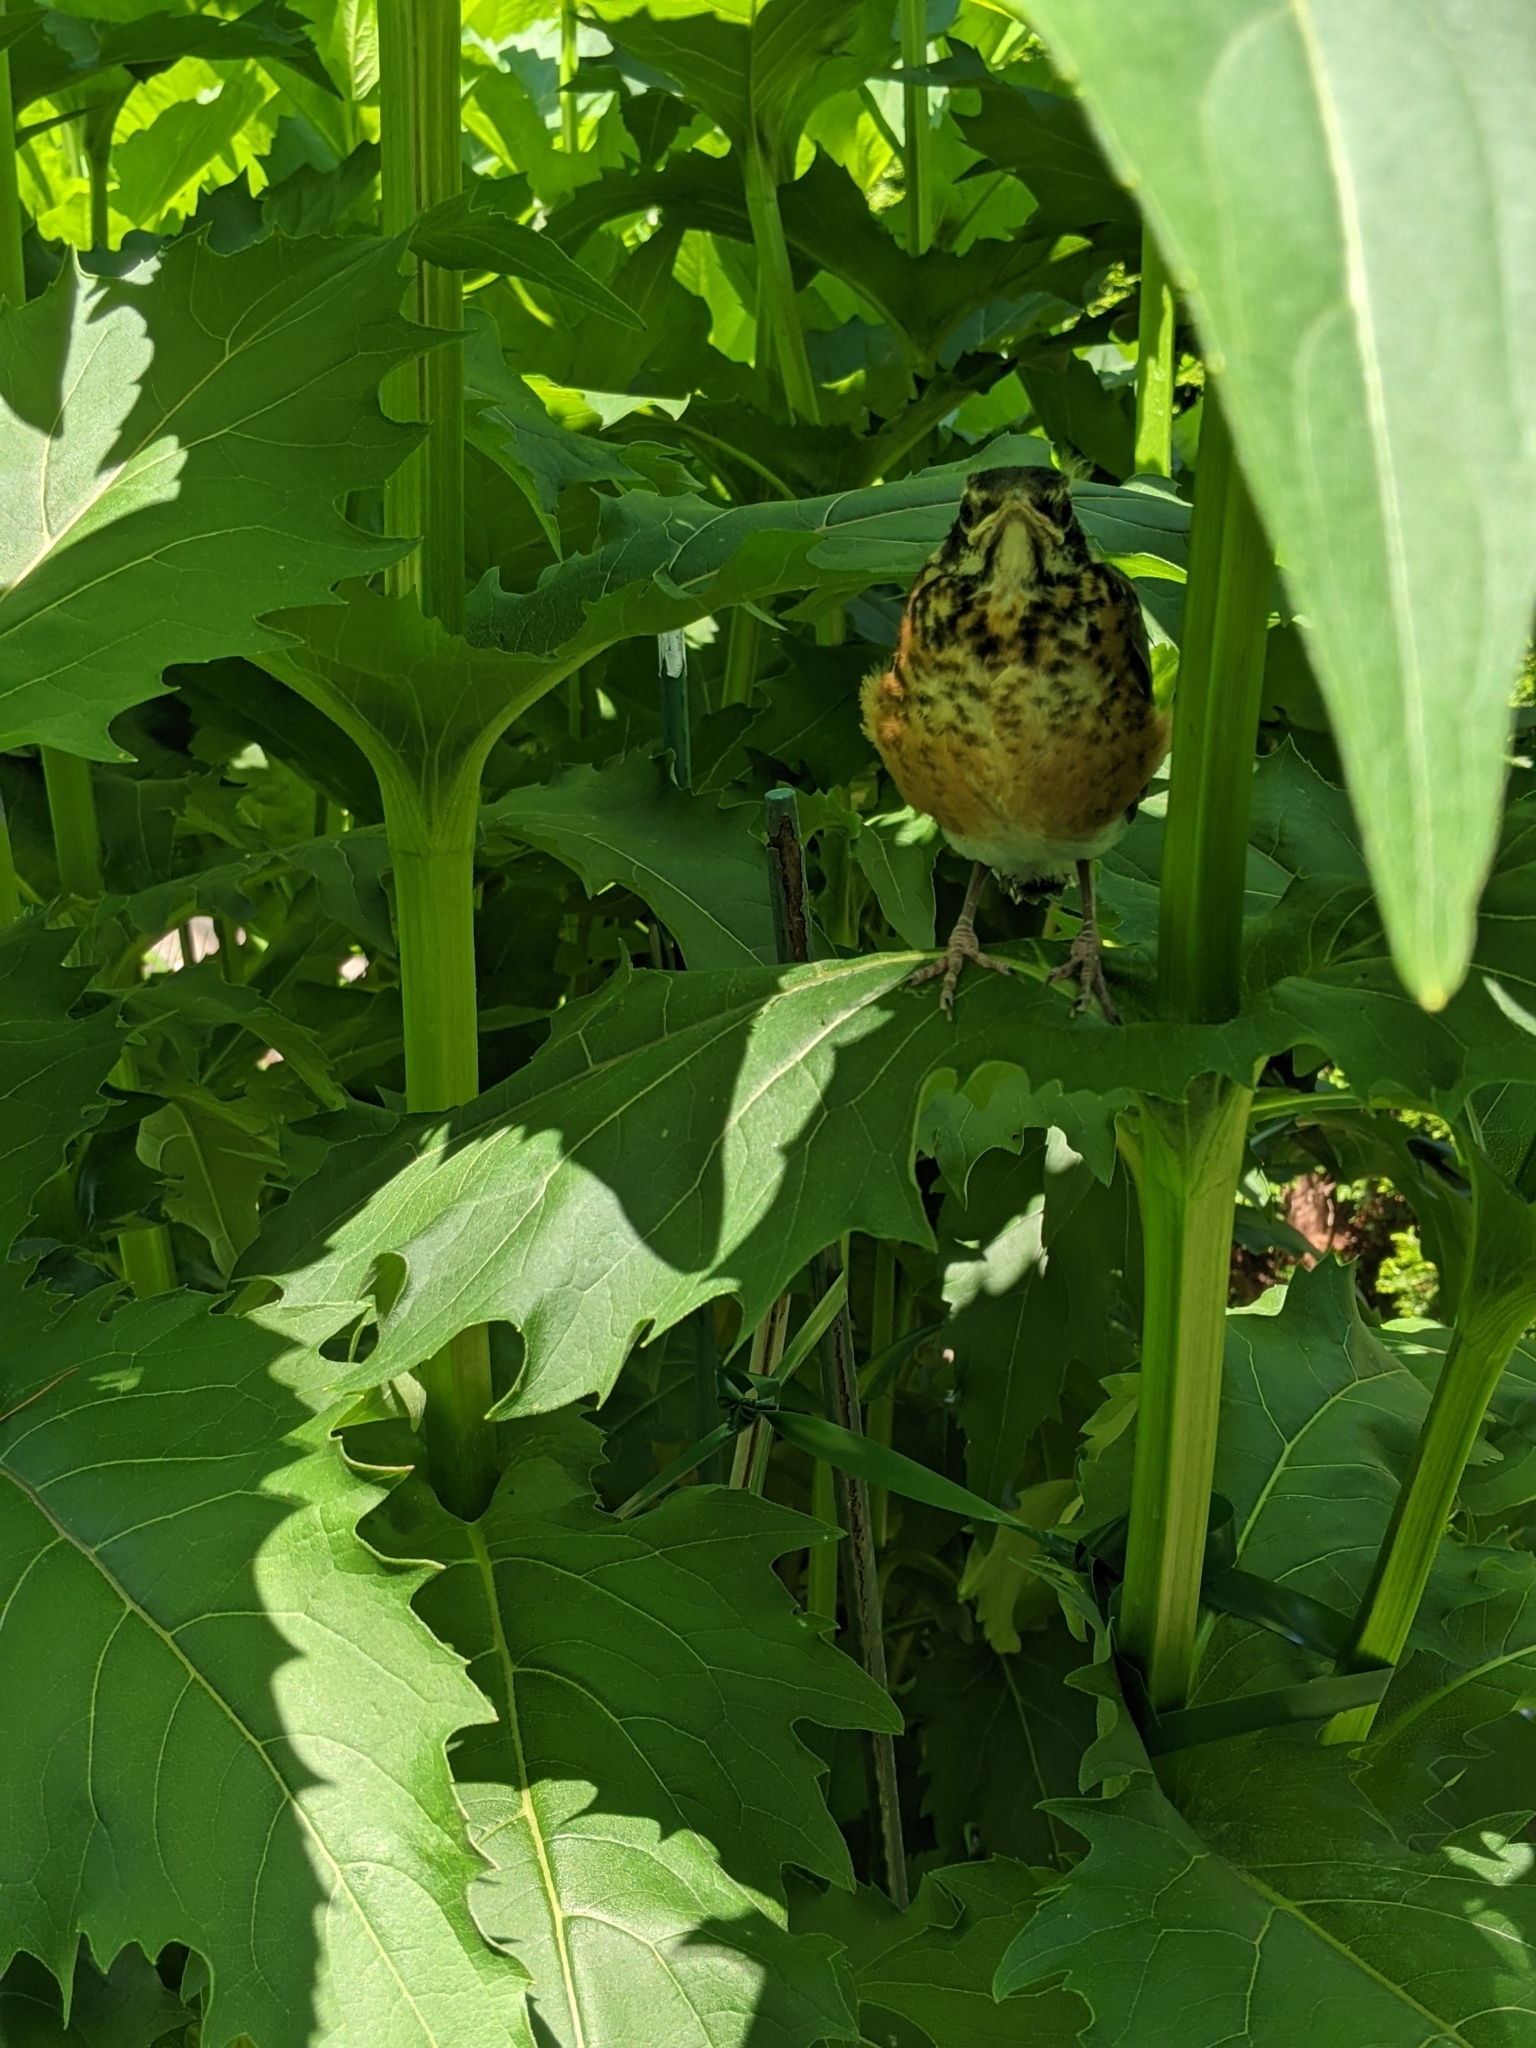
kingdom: Animalia
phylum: Chordata
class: Aves
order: Passeriformes
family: Turdidae
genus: Turdus
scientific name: Turdus migratorius
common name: American robin
